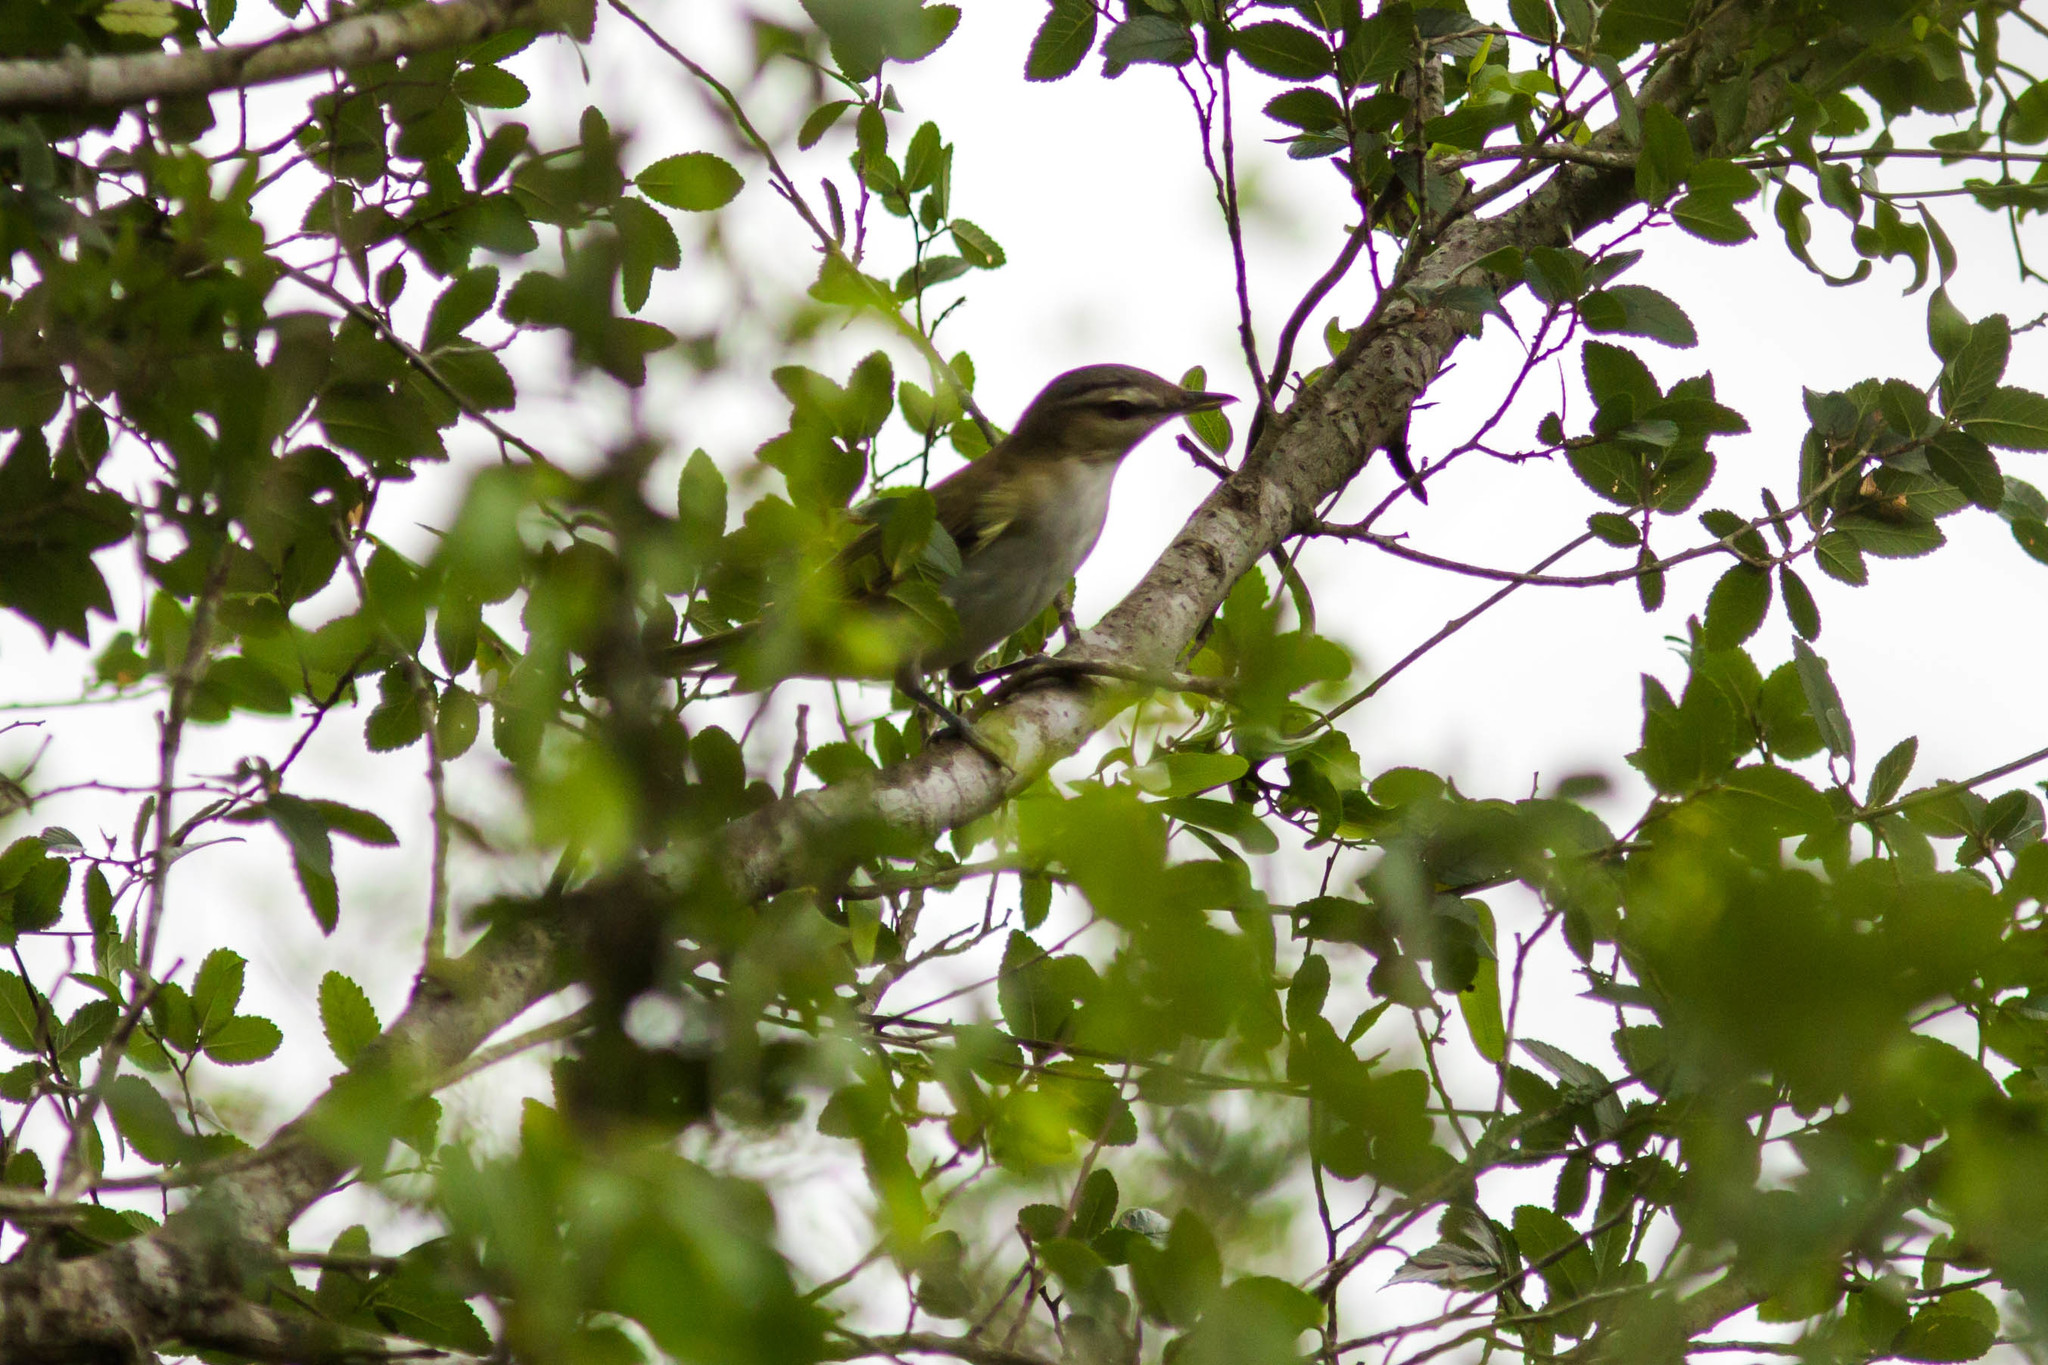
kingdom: Animalia
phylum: Chordata
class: Aves
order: Passeriformes
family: Vireonidae
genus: Vireo
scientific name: Vireo olivaceus
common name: Red-eyed vireo
